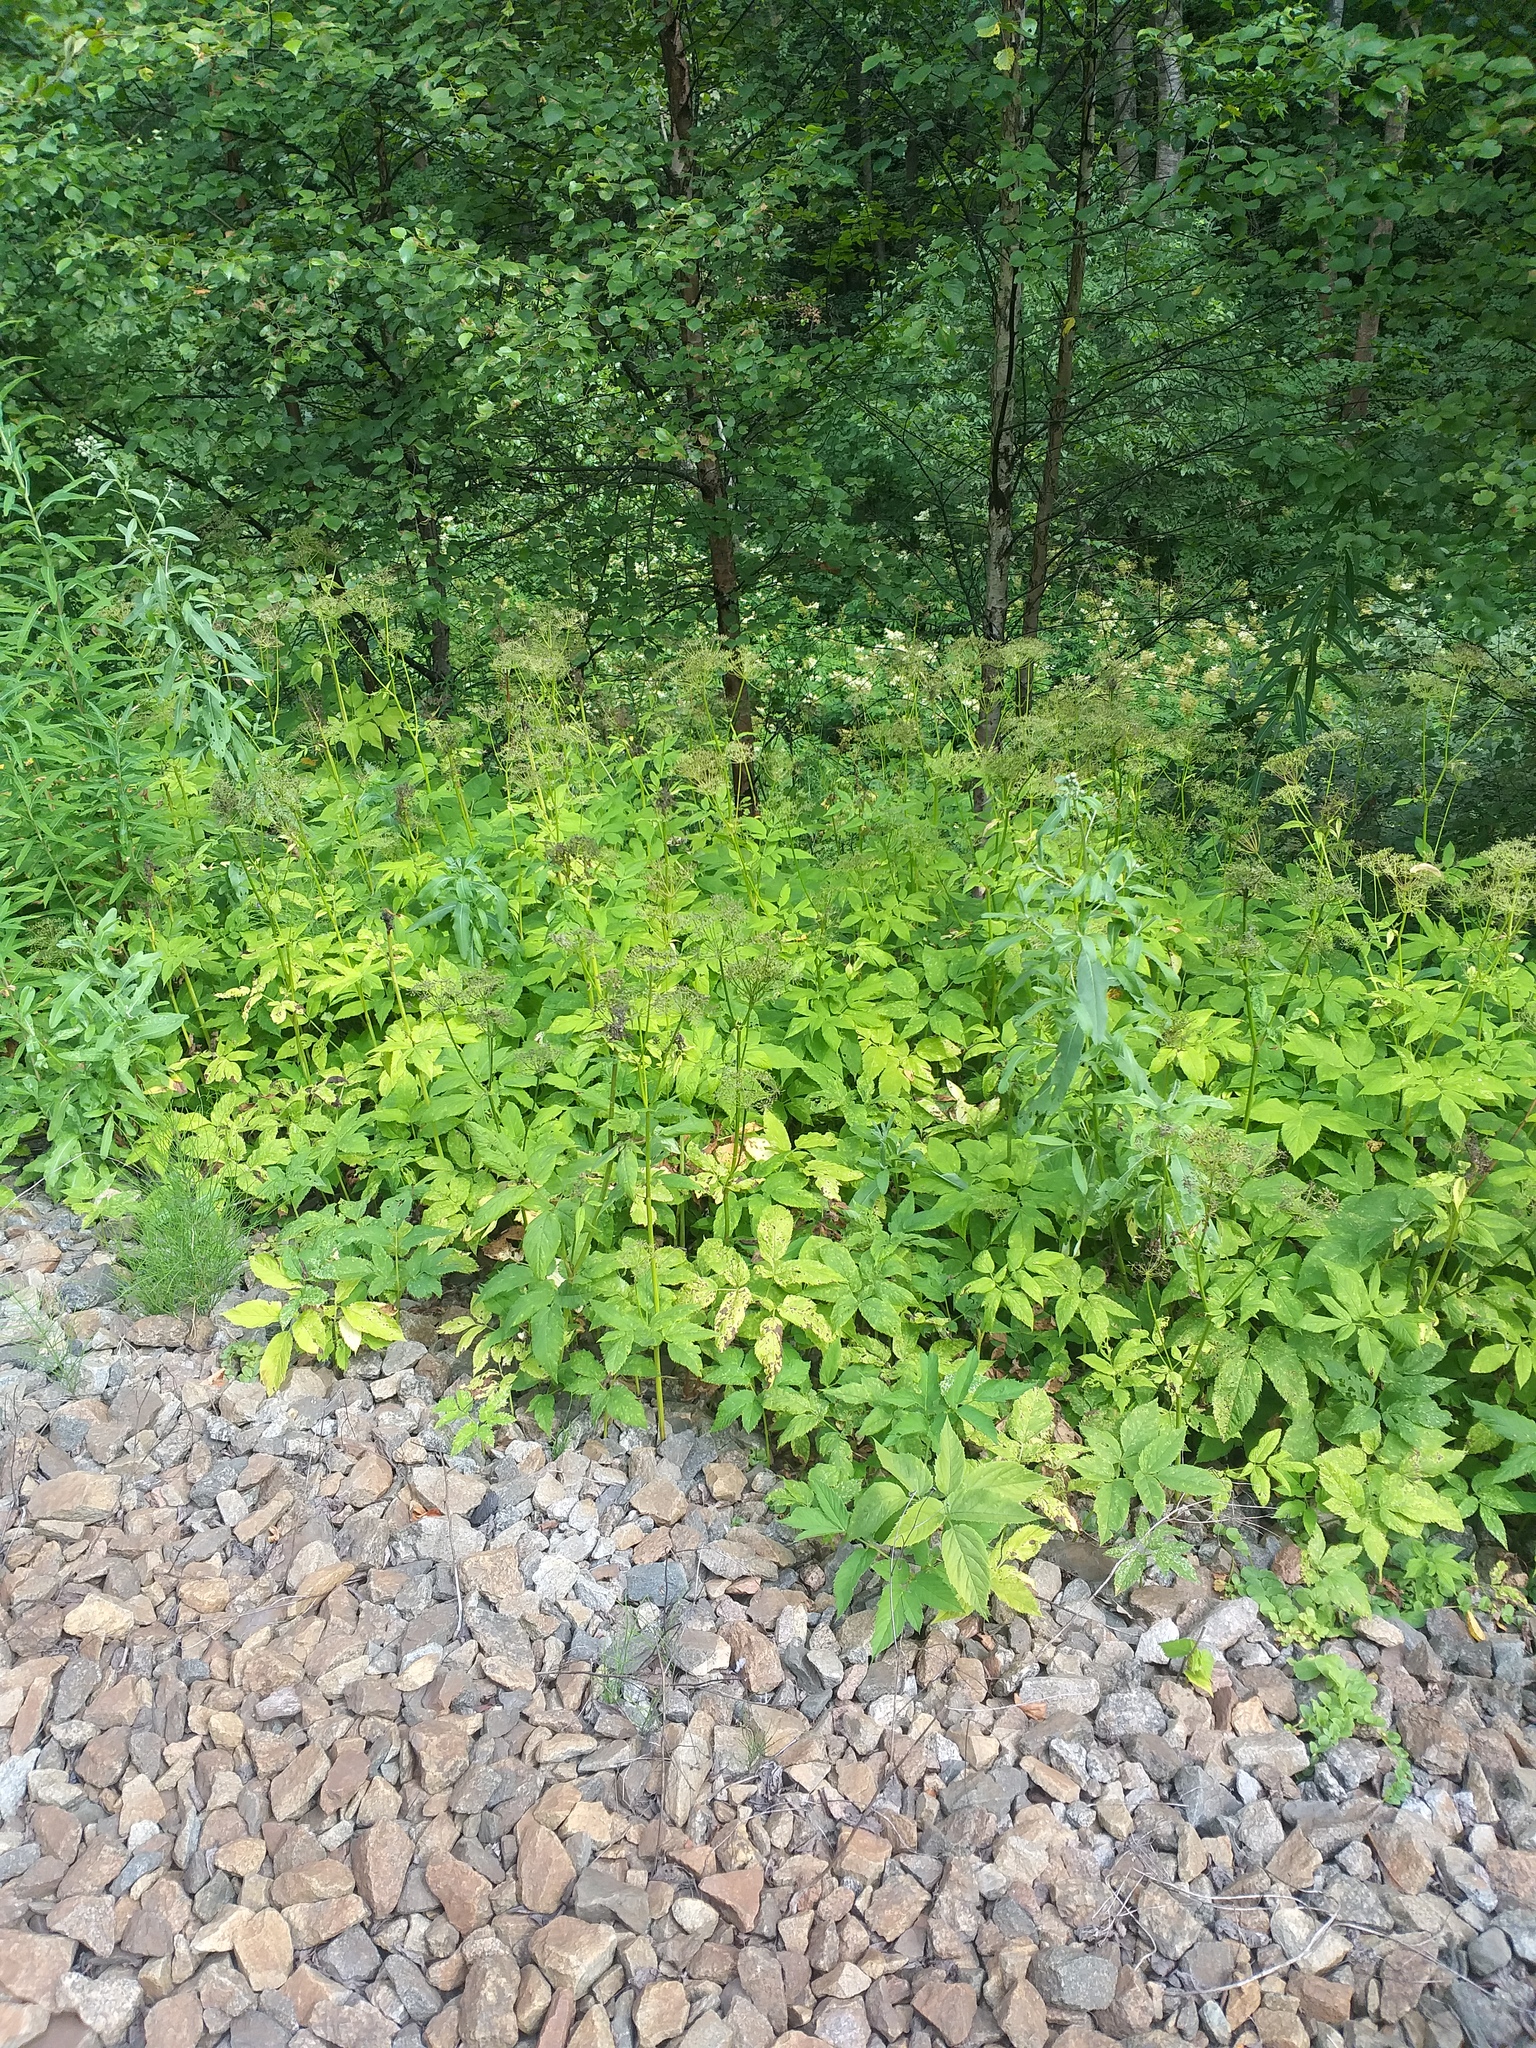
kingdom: Plantae
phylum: Tracheophyta
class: Magnoliopsida
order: Apiales
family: Apiaceae
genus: Aegopodium
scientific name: Aegopodium podagraria
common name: Ground-elder
